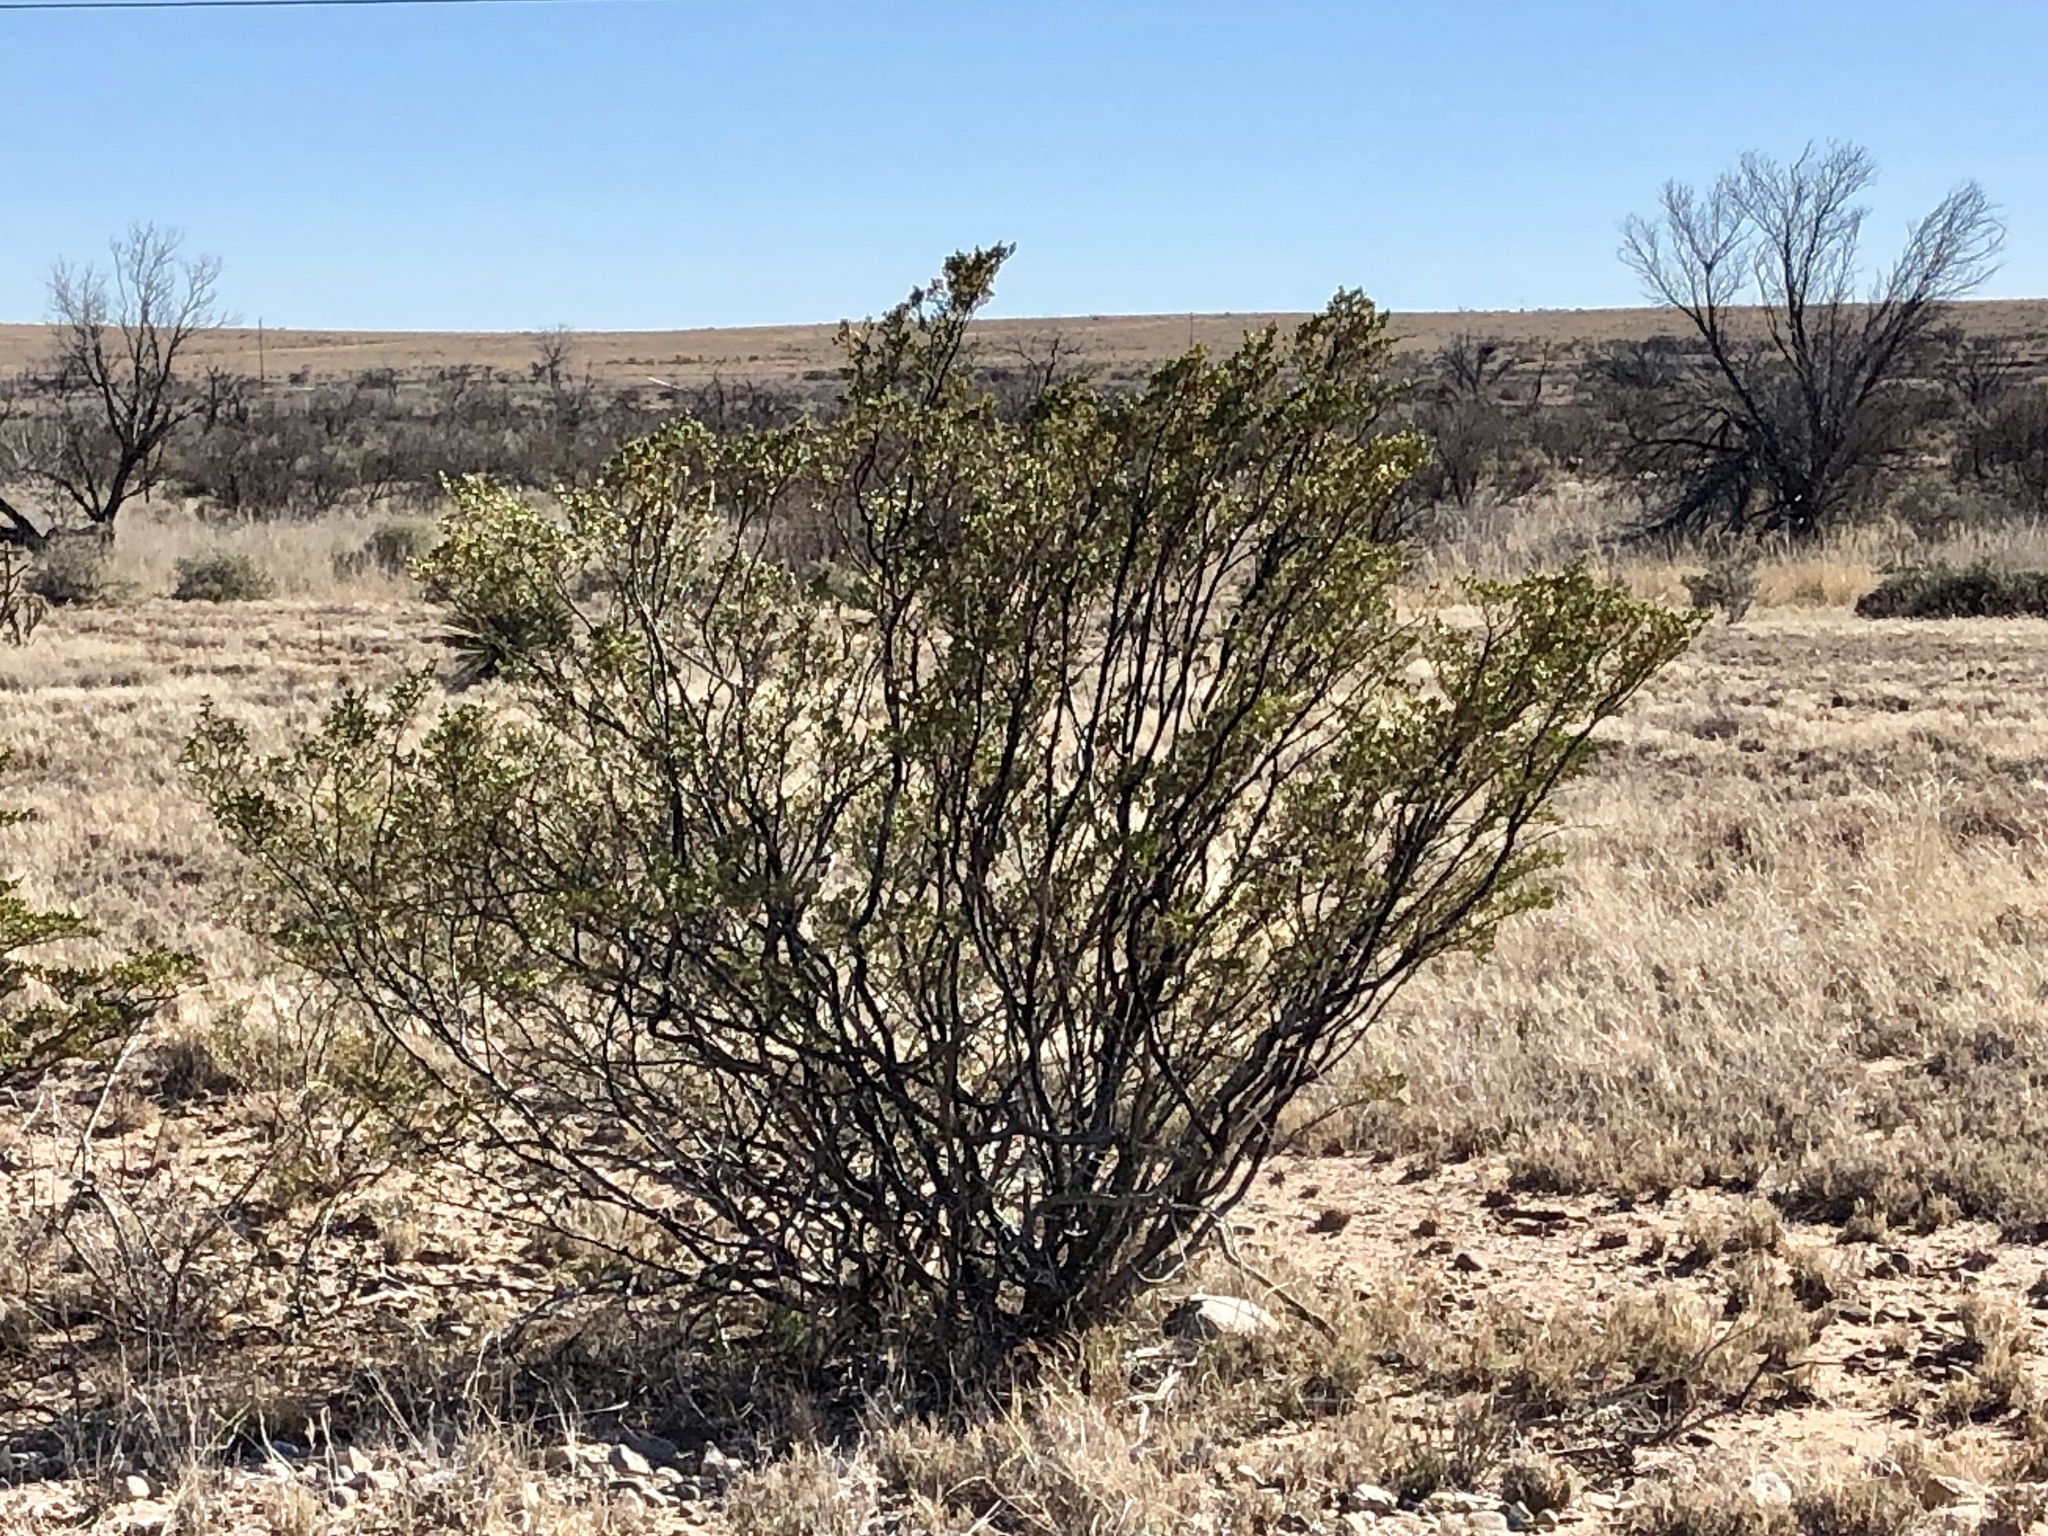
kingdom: Plantae
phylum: Tracheophyta
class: Magnoliopsida
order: Zygophyllales
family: Zygophyllaceae
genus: Larrea
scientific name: Larrea tridentata
